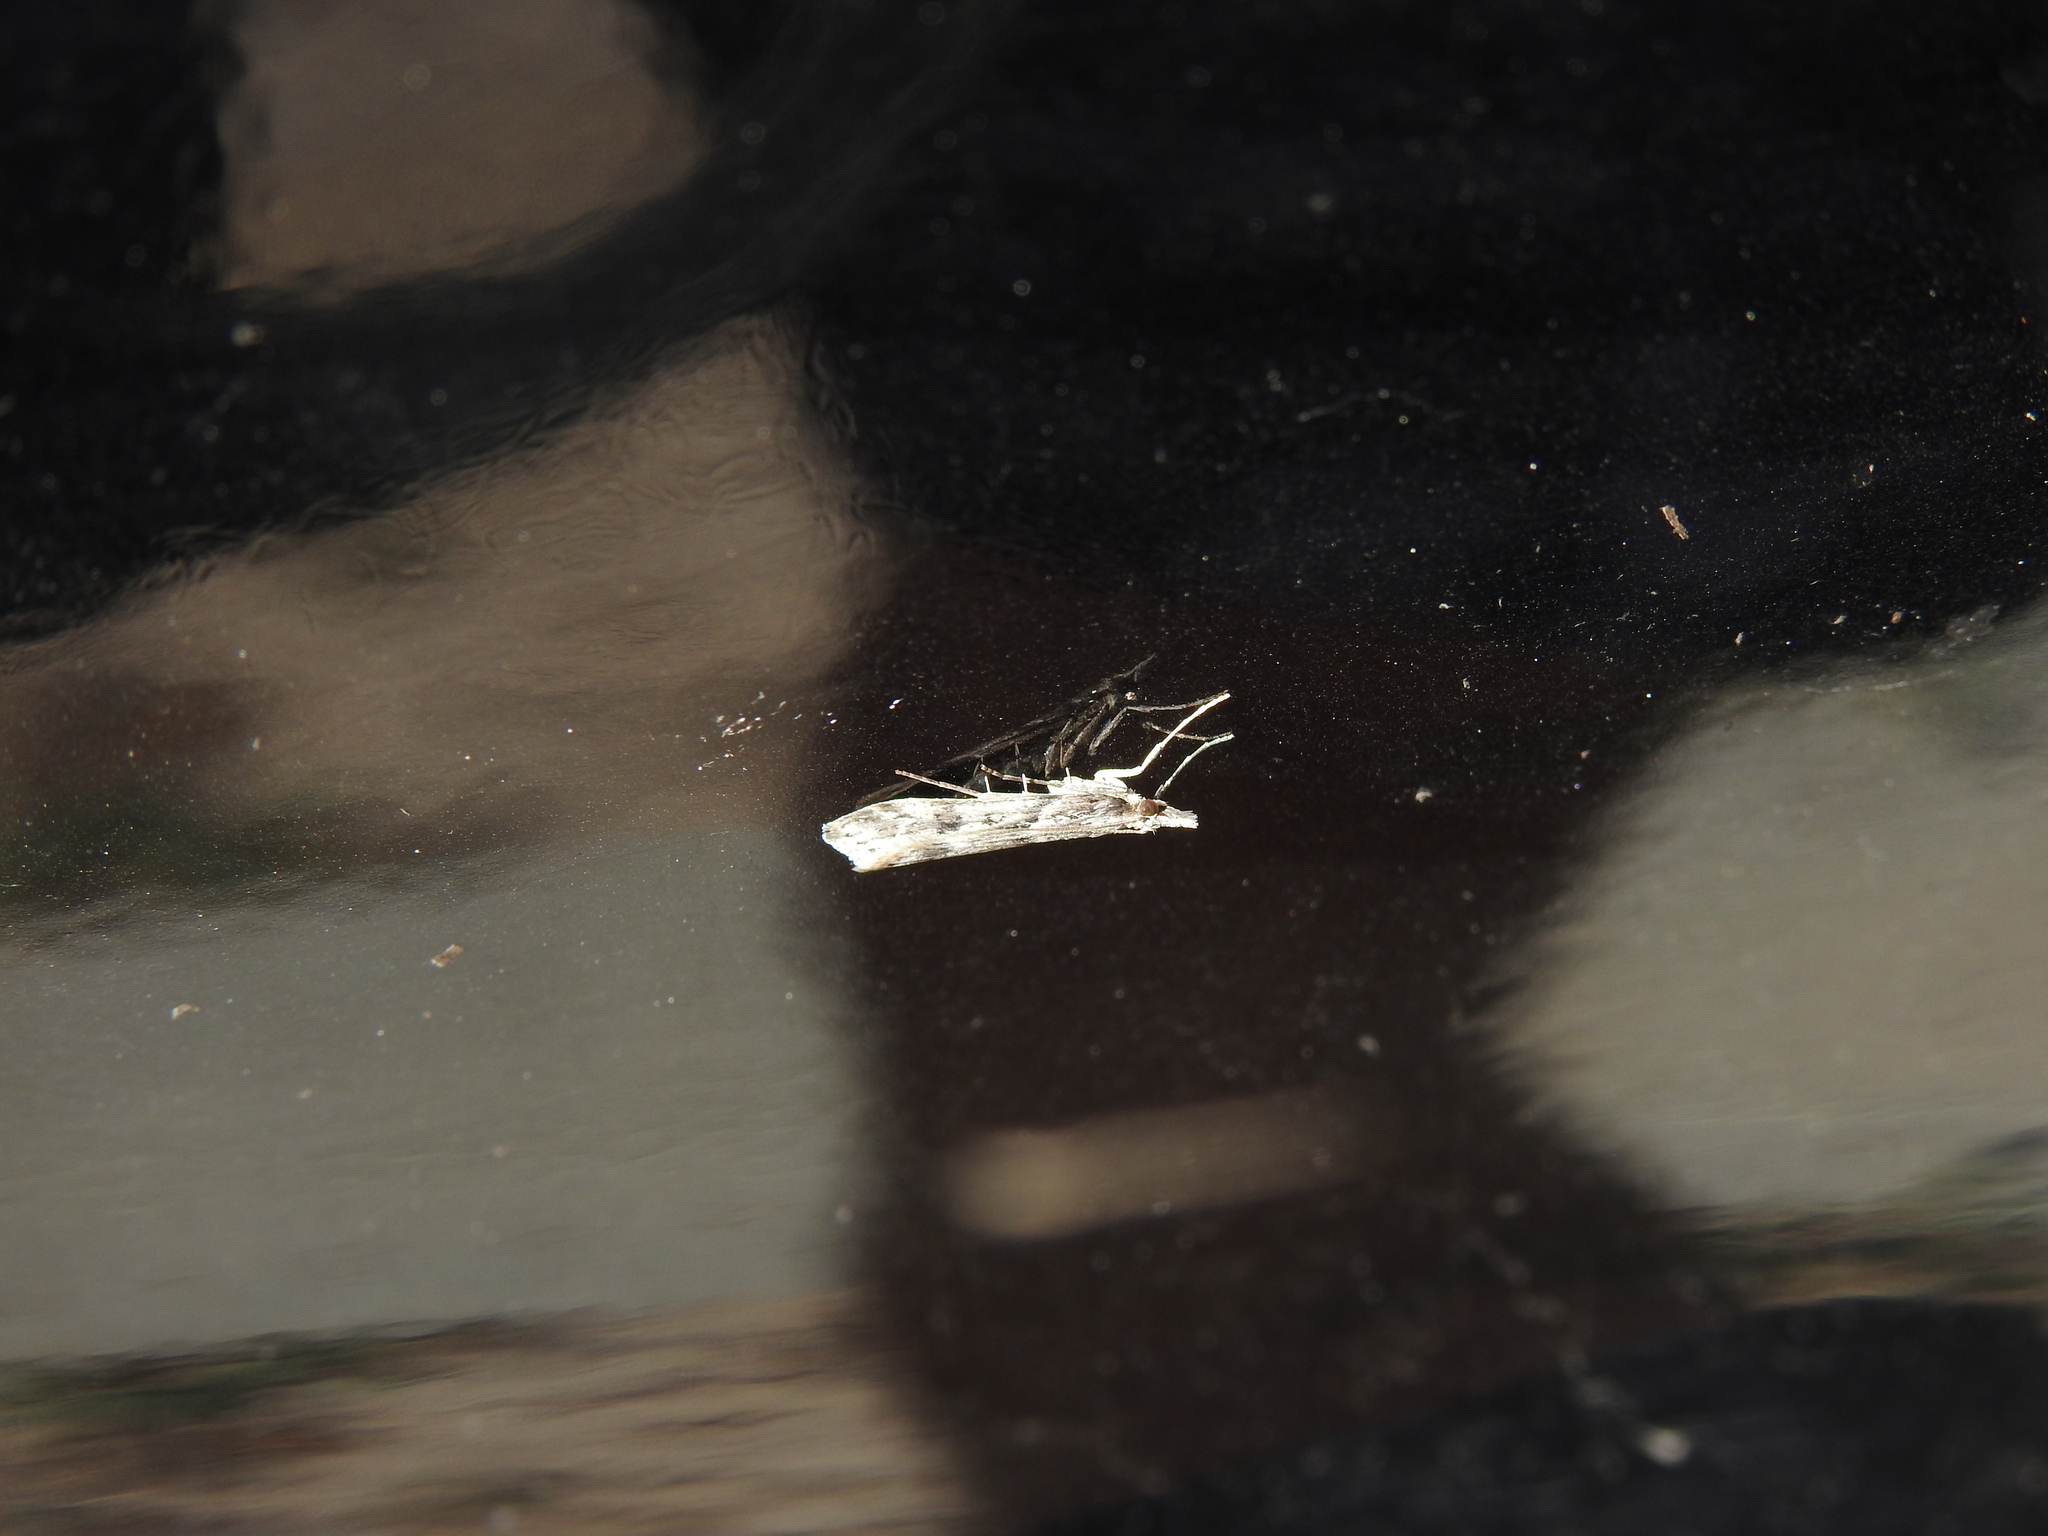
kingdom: Animalia
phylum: Arthropoda
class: Insecta
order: Lepidoptera
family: Crambidae
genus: Eudonia
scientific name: Eudonia angustea
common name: Narrow-winged grey
